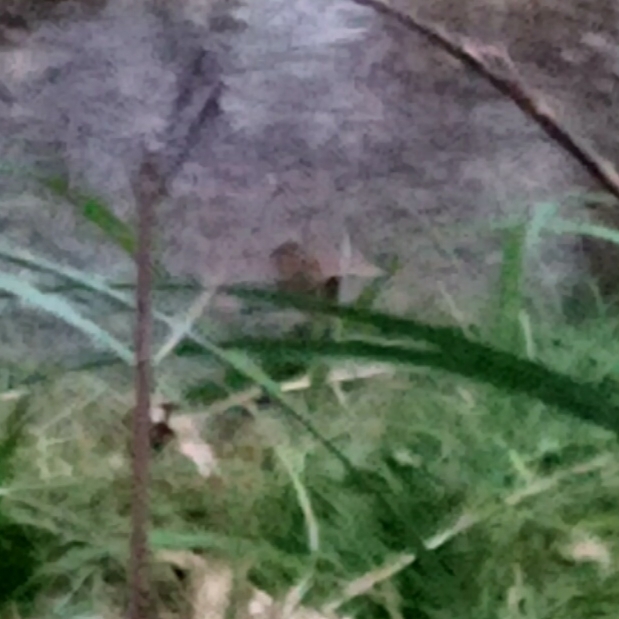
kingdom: Animalia
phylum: Chordata
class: Aves
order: Passeriformes
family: Troglodytidae
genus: Troglodytes
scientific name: Troglodytes troglodytes
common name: Eurasian wren
